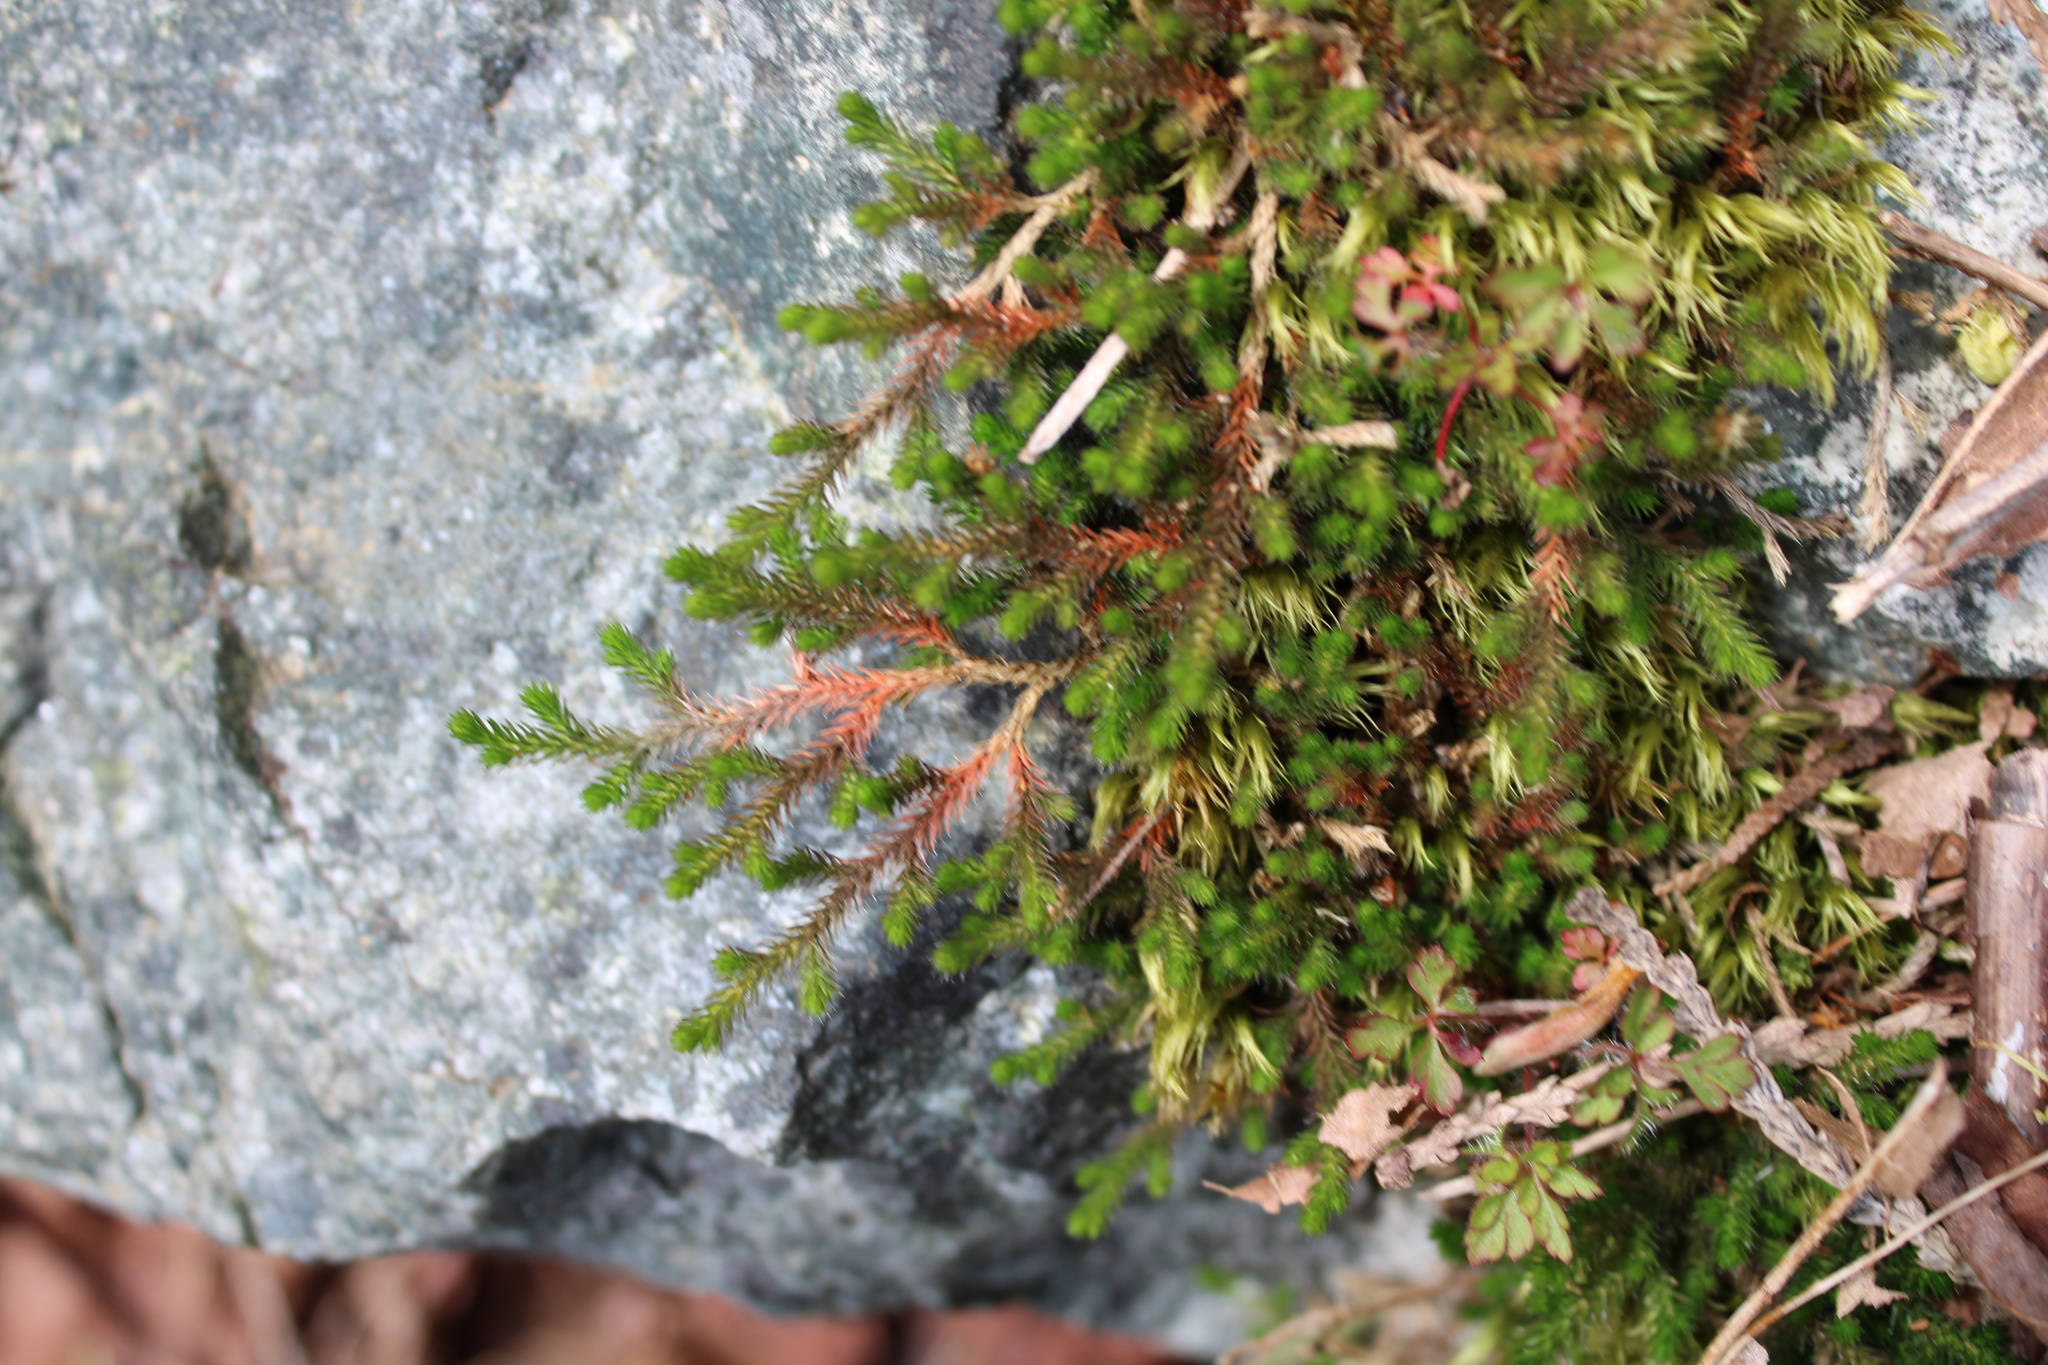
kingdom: Plantae
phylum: Tracheophyta
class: Lycopodiopsida
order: Selaginellales
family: Selaginellaceae
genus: Selaginella
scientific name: Selaginella wallacei
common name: Wallace's selaginella
